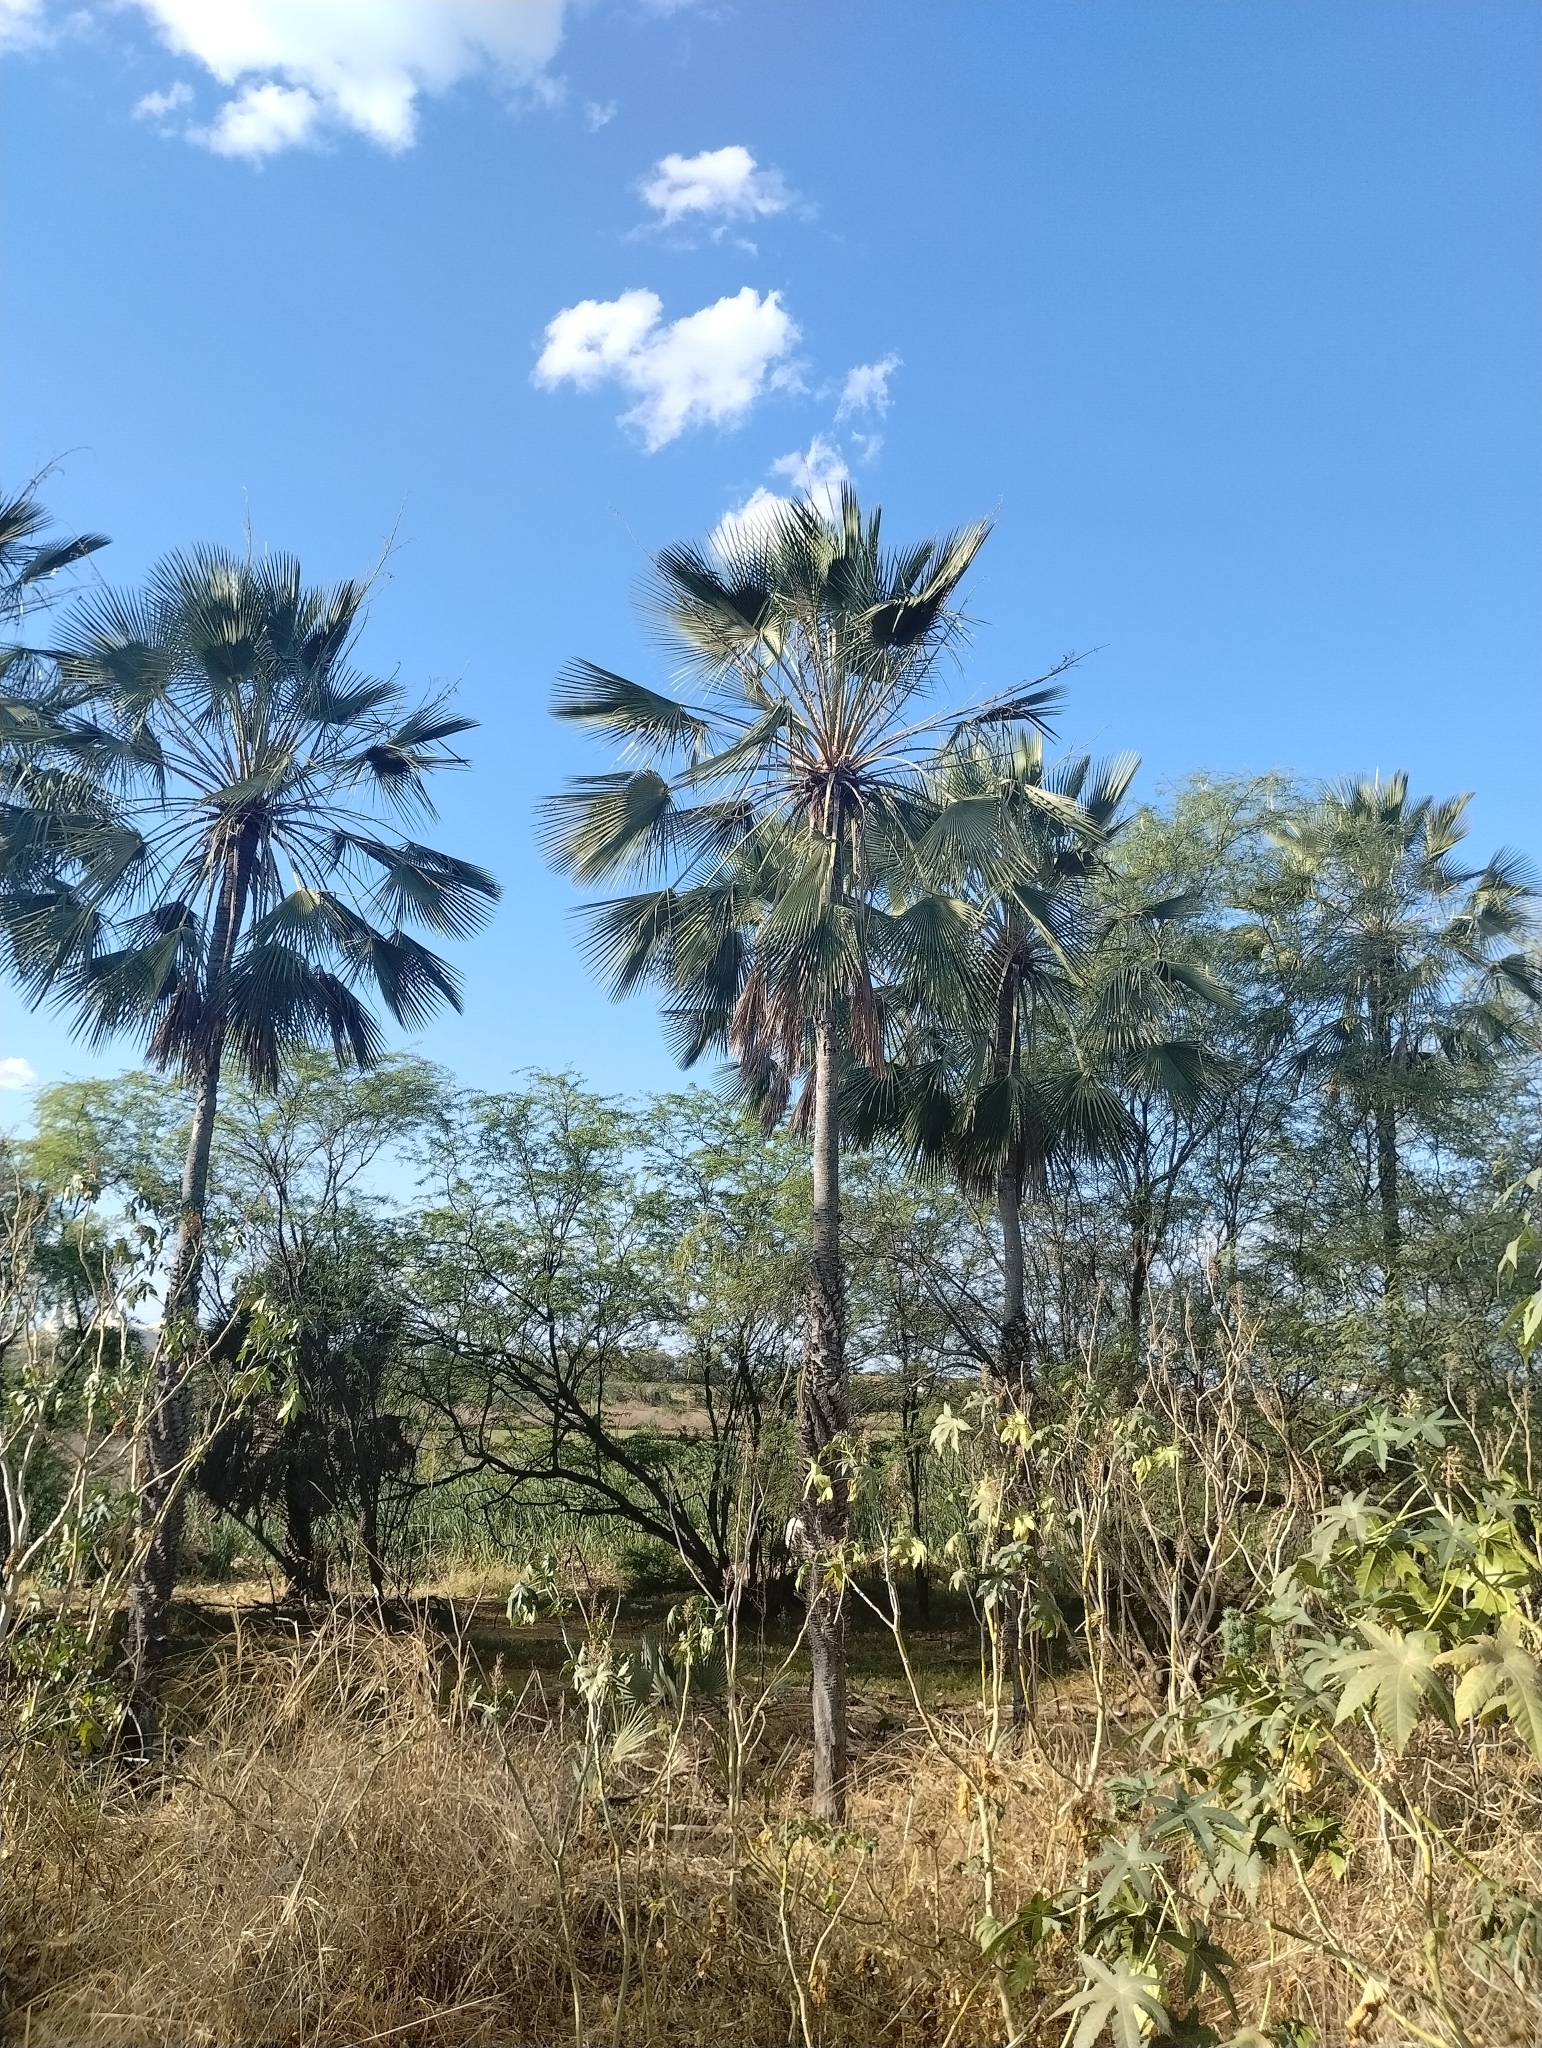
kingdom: Plantae
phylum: Tracheophyta
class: Liliopsida
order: Arecales
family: Arecaceae
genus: Copernicia
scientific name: Copernicia prunifera
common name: Carnauba palm
